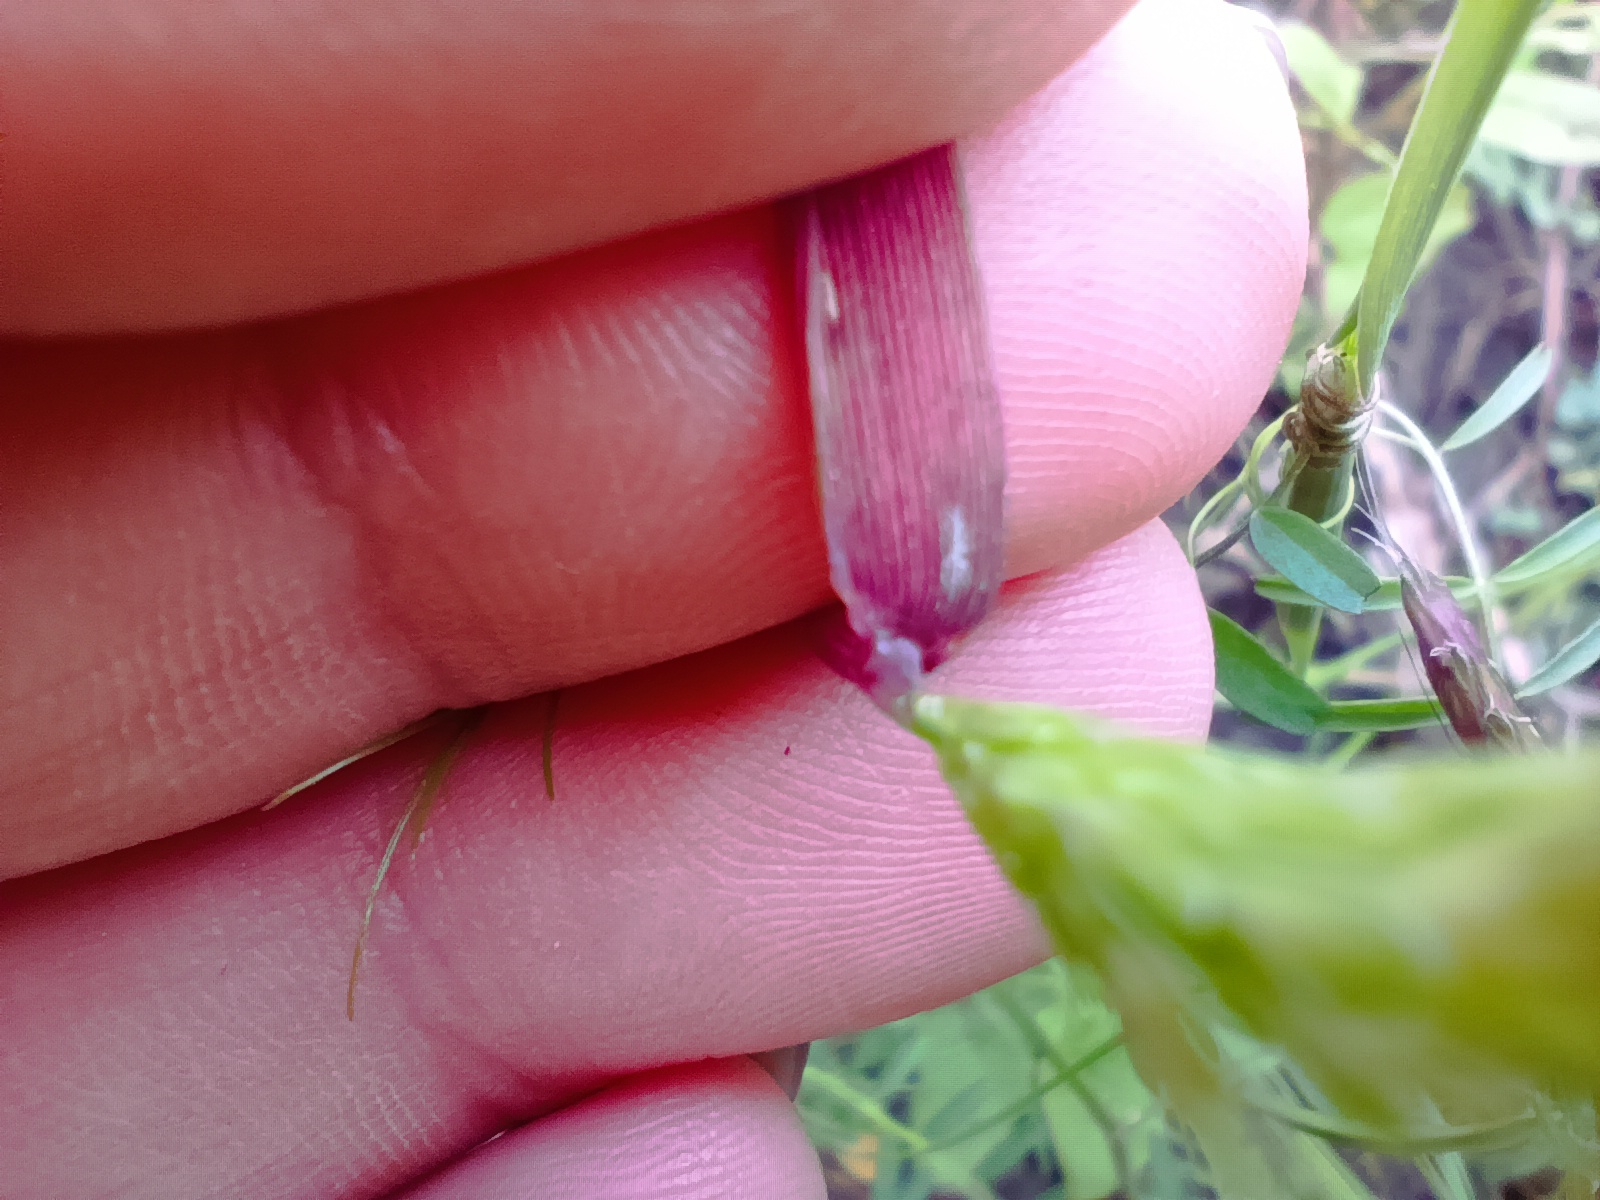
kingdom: Plantae
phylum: Tracheophyta
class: Liliopsida
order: Poales
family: Poaceae
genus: Alopecurus
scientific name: Alopecurus myosuroides
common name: Black-grass
